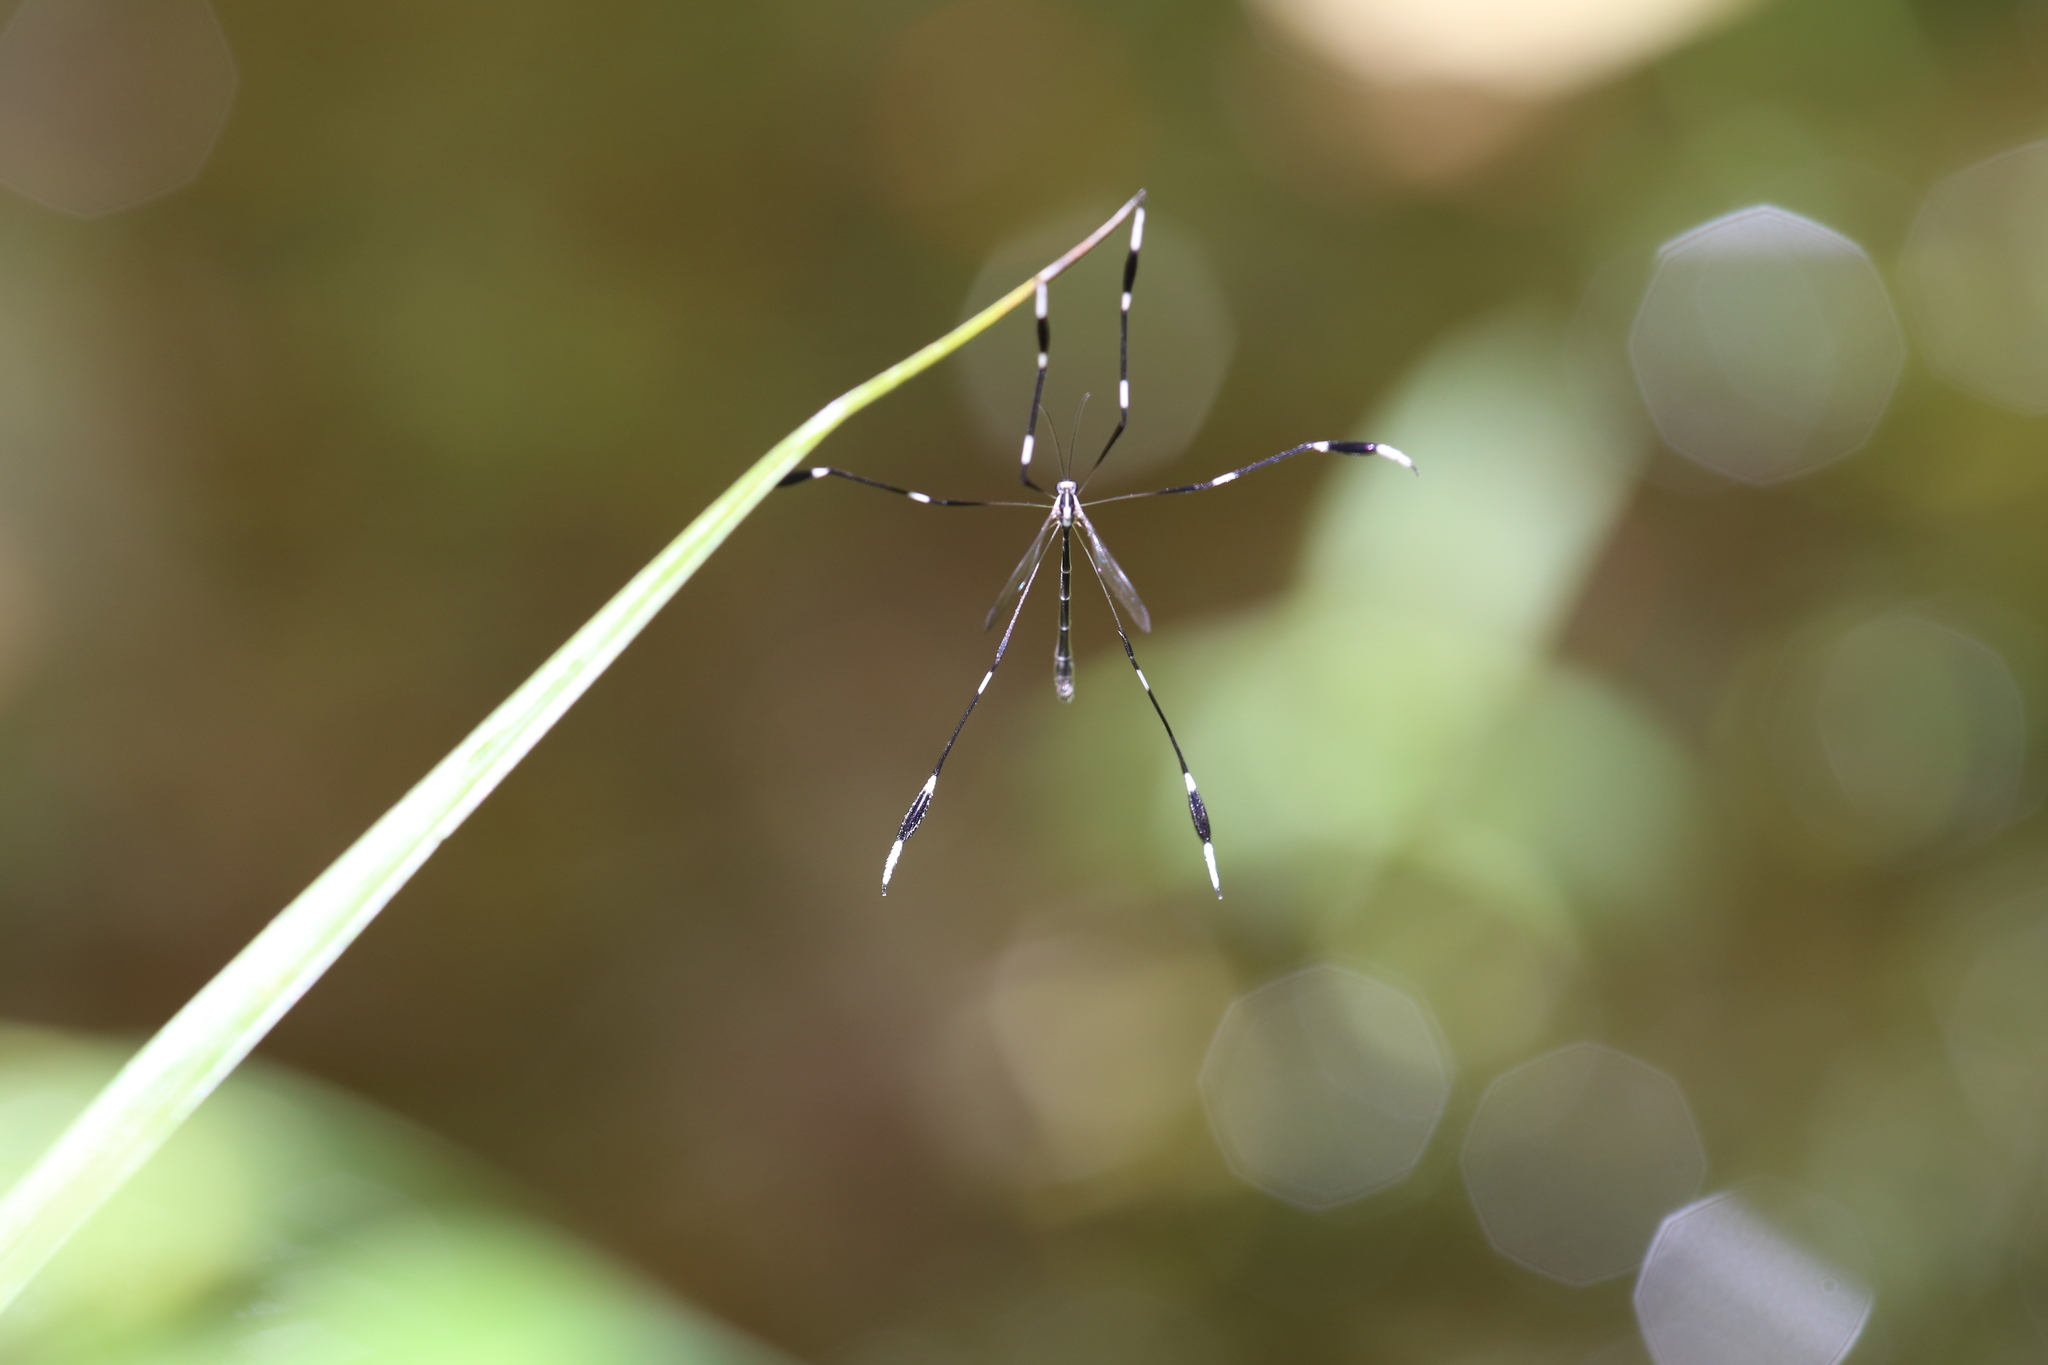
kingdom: Animalia
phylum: Arthropoda
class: Insecta
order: Diptera
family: Ptychopteridae
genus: Bittacomorpha
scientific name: Bittacomorpha clavipes
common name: Eastern phantom crane fly
